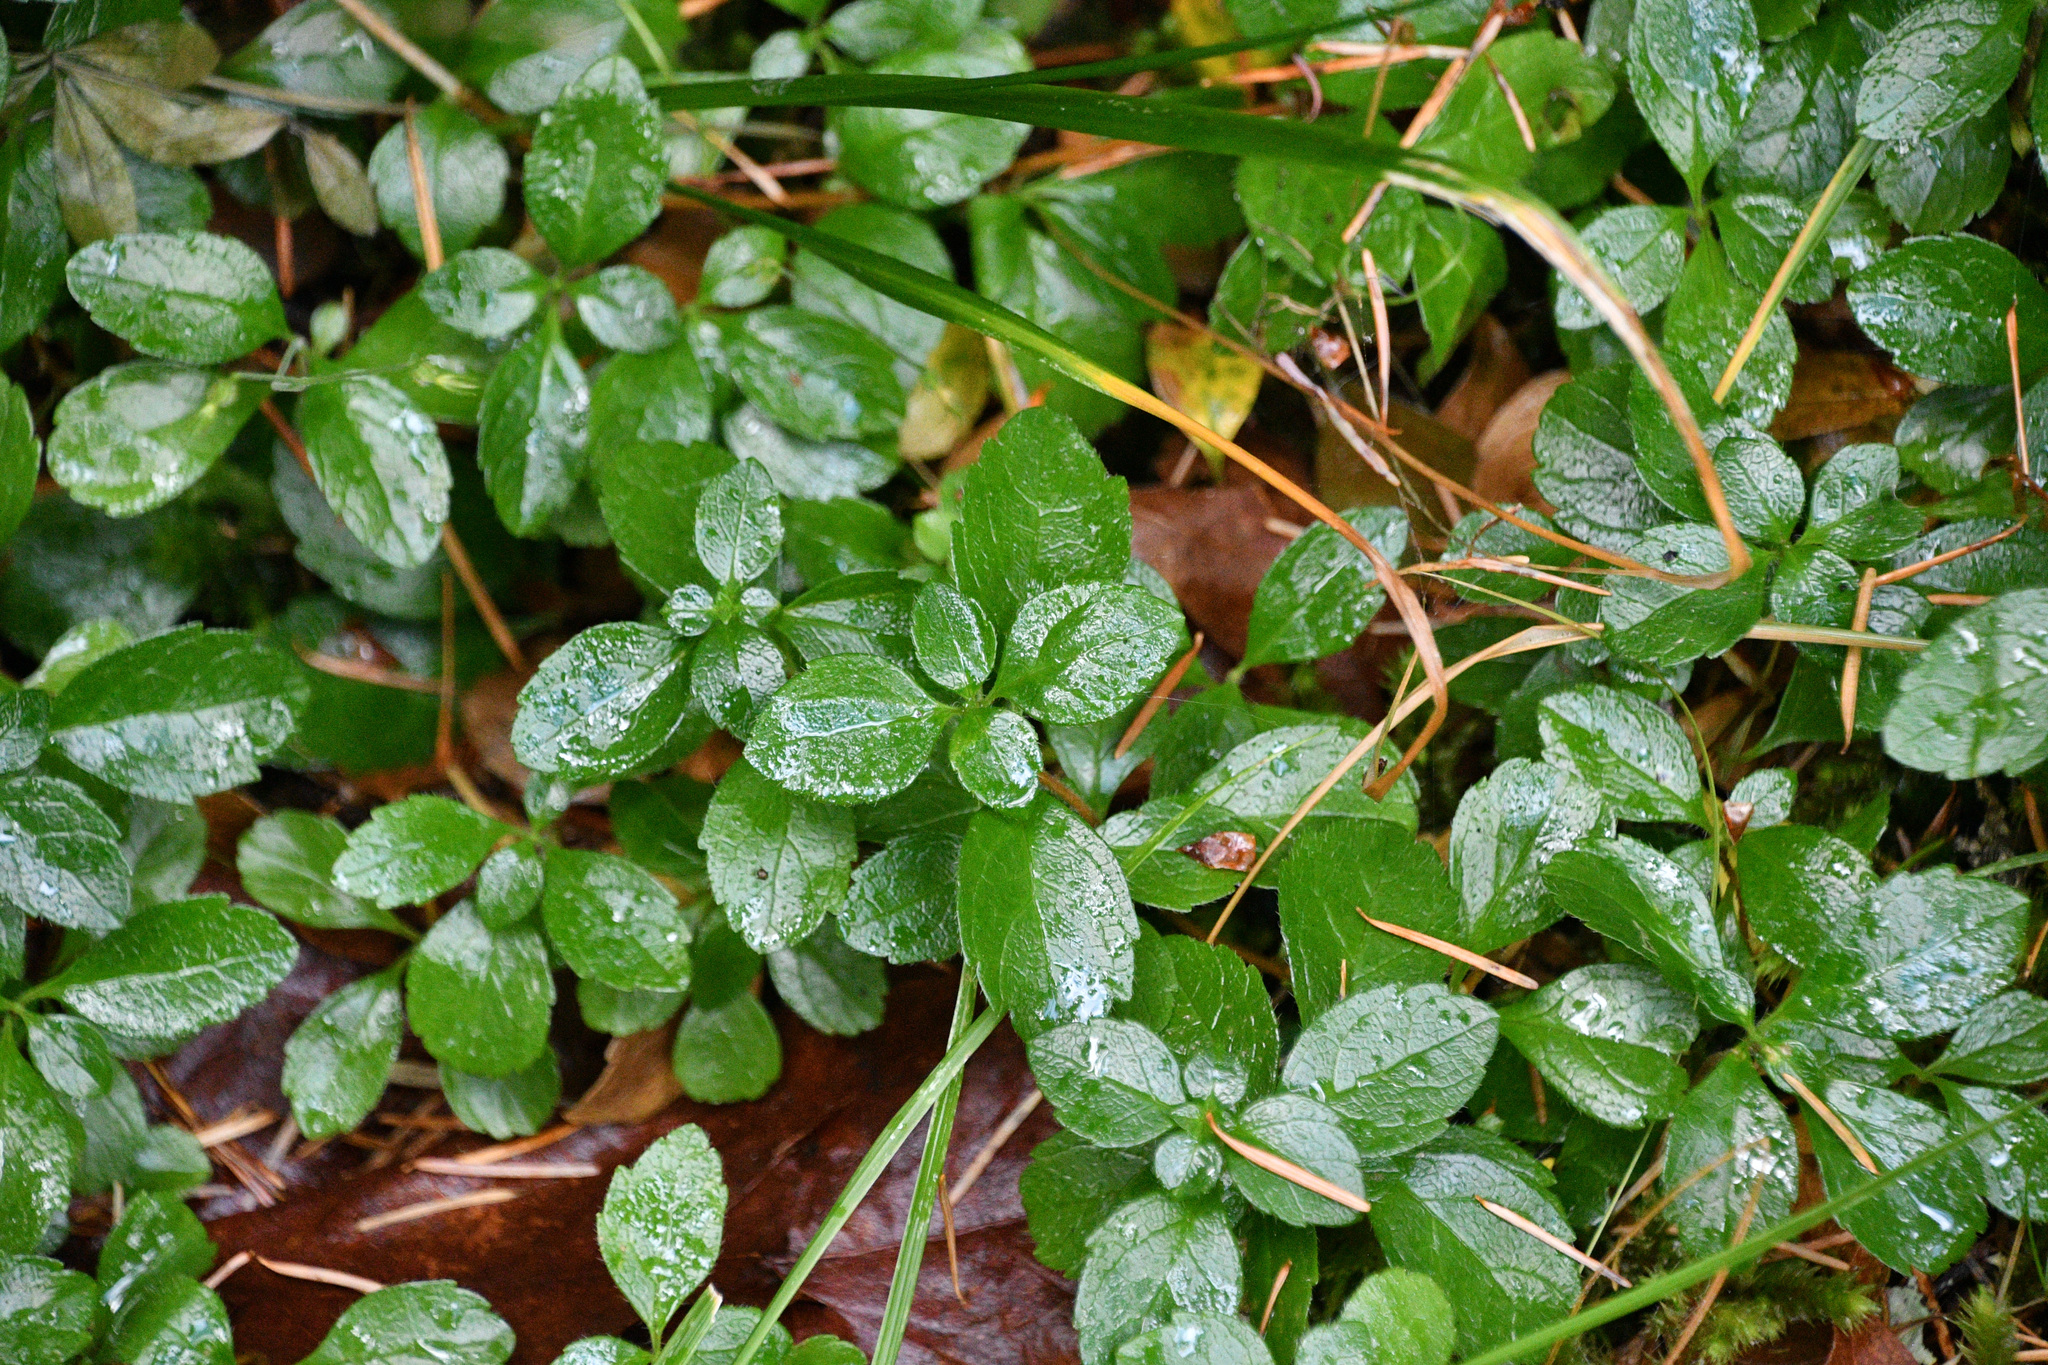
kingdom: Plantae
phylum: Tracheophyta
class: Magnoliopsida
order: Dipsacales
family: Caprifoliaceae
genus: Linnaea
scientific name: Linnaea borealis
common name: Twinflower
